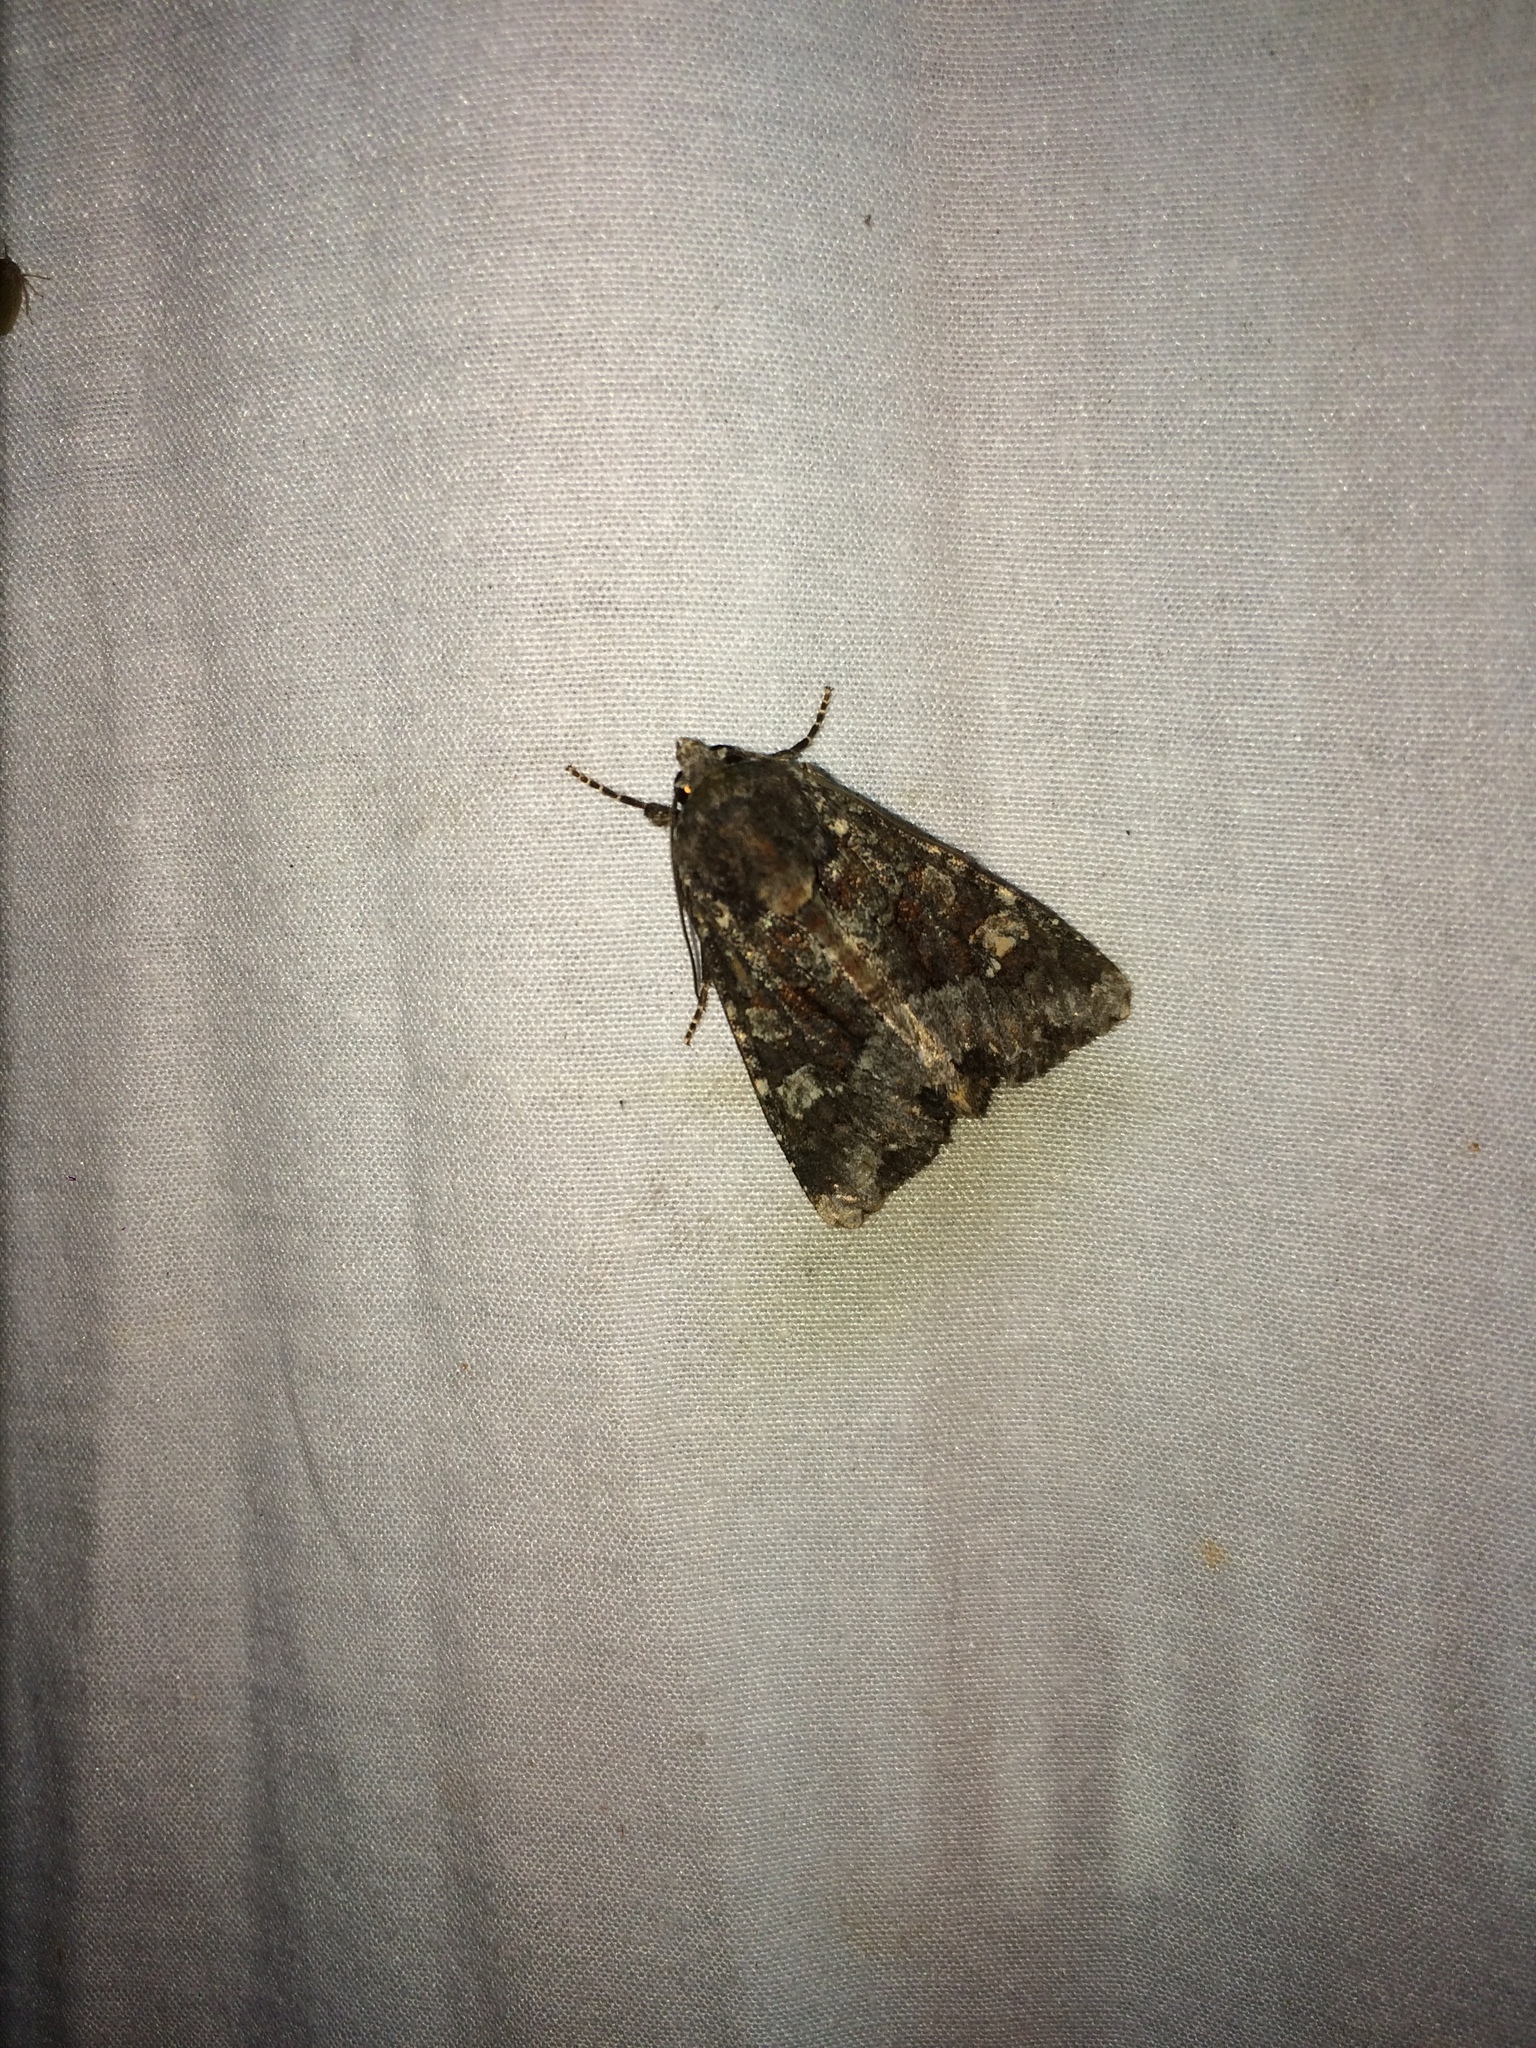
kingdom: Animalia
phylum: Arthropoda
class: Insecta
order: Lepidoptera
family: Noctuidae
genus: Apamea
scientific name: Apamea amputatrix
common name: Yellow-headed cutworm moth
